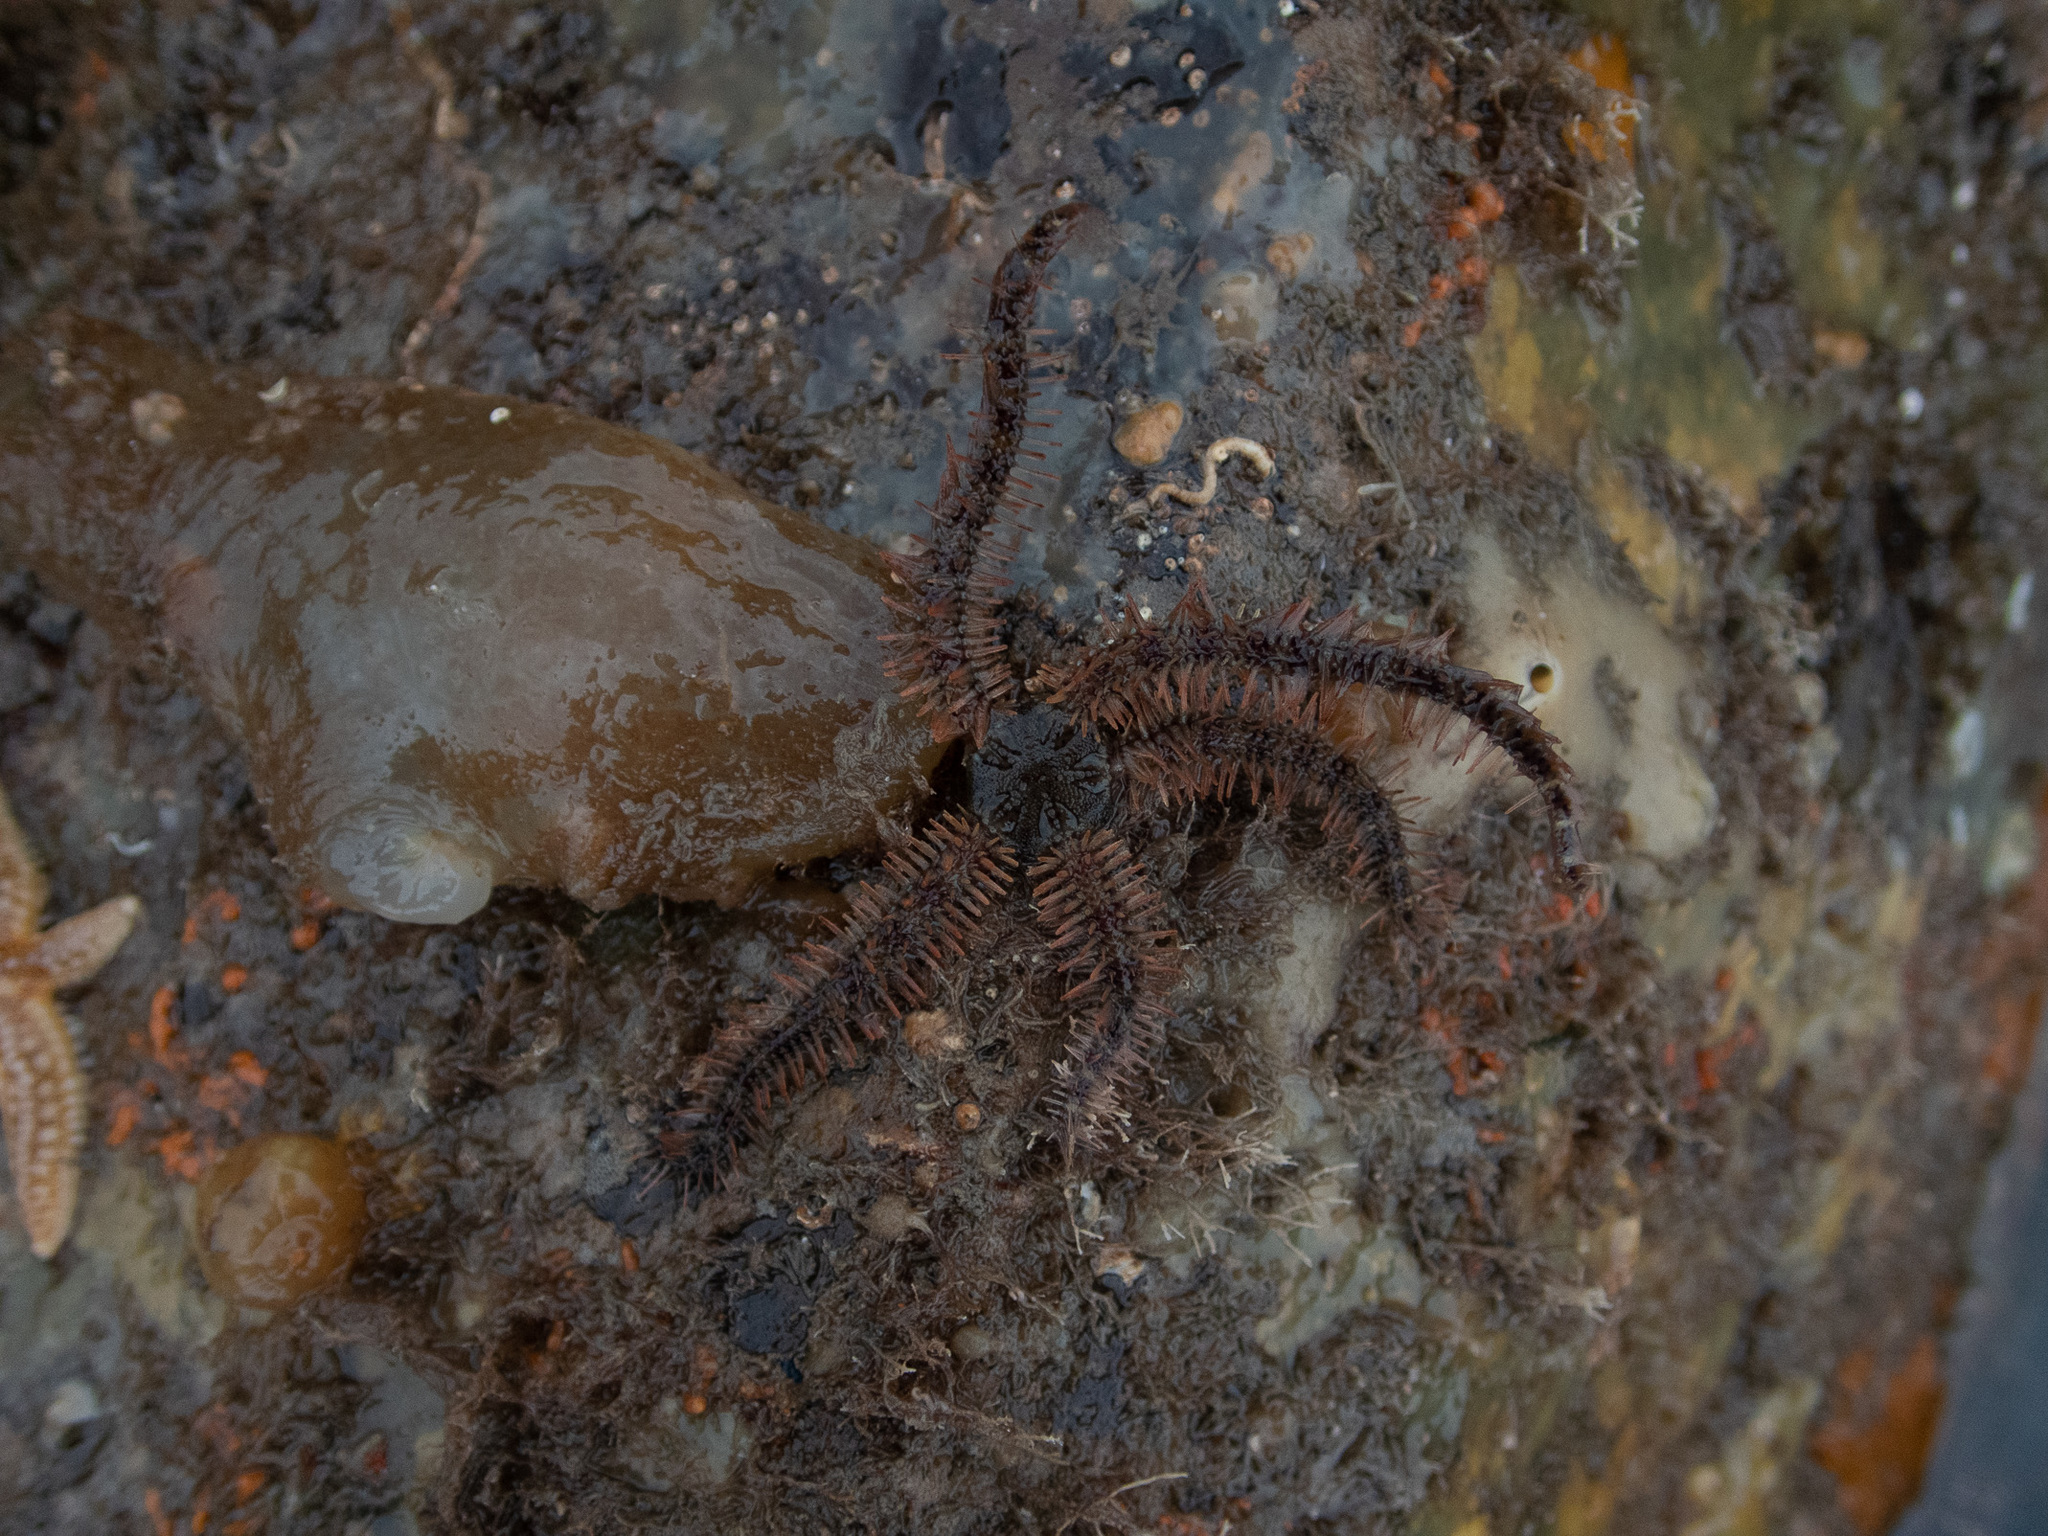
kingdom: Animalia
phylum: Echinodermata
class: Ophiuroidea
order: Amphilepidida
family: Ophiotrichidae
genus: Ophiothrix
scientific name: Ophiothrix fragilis
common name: Common brittlestar
